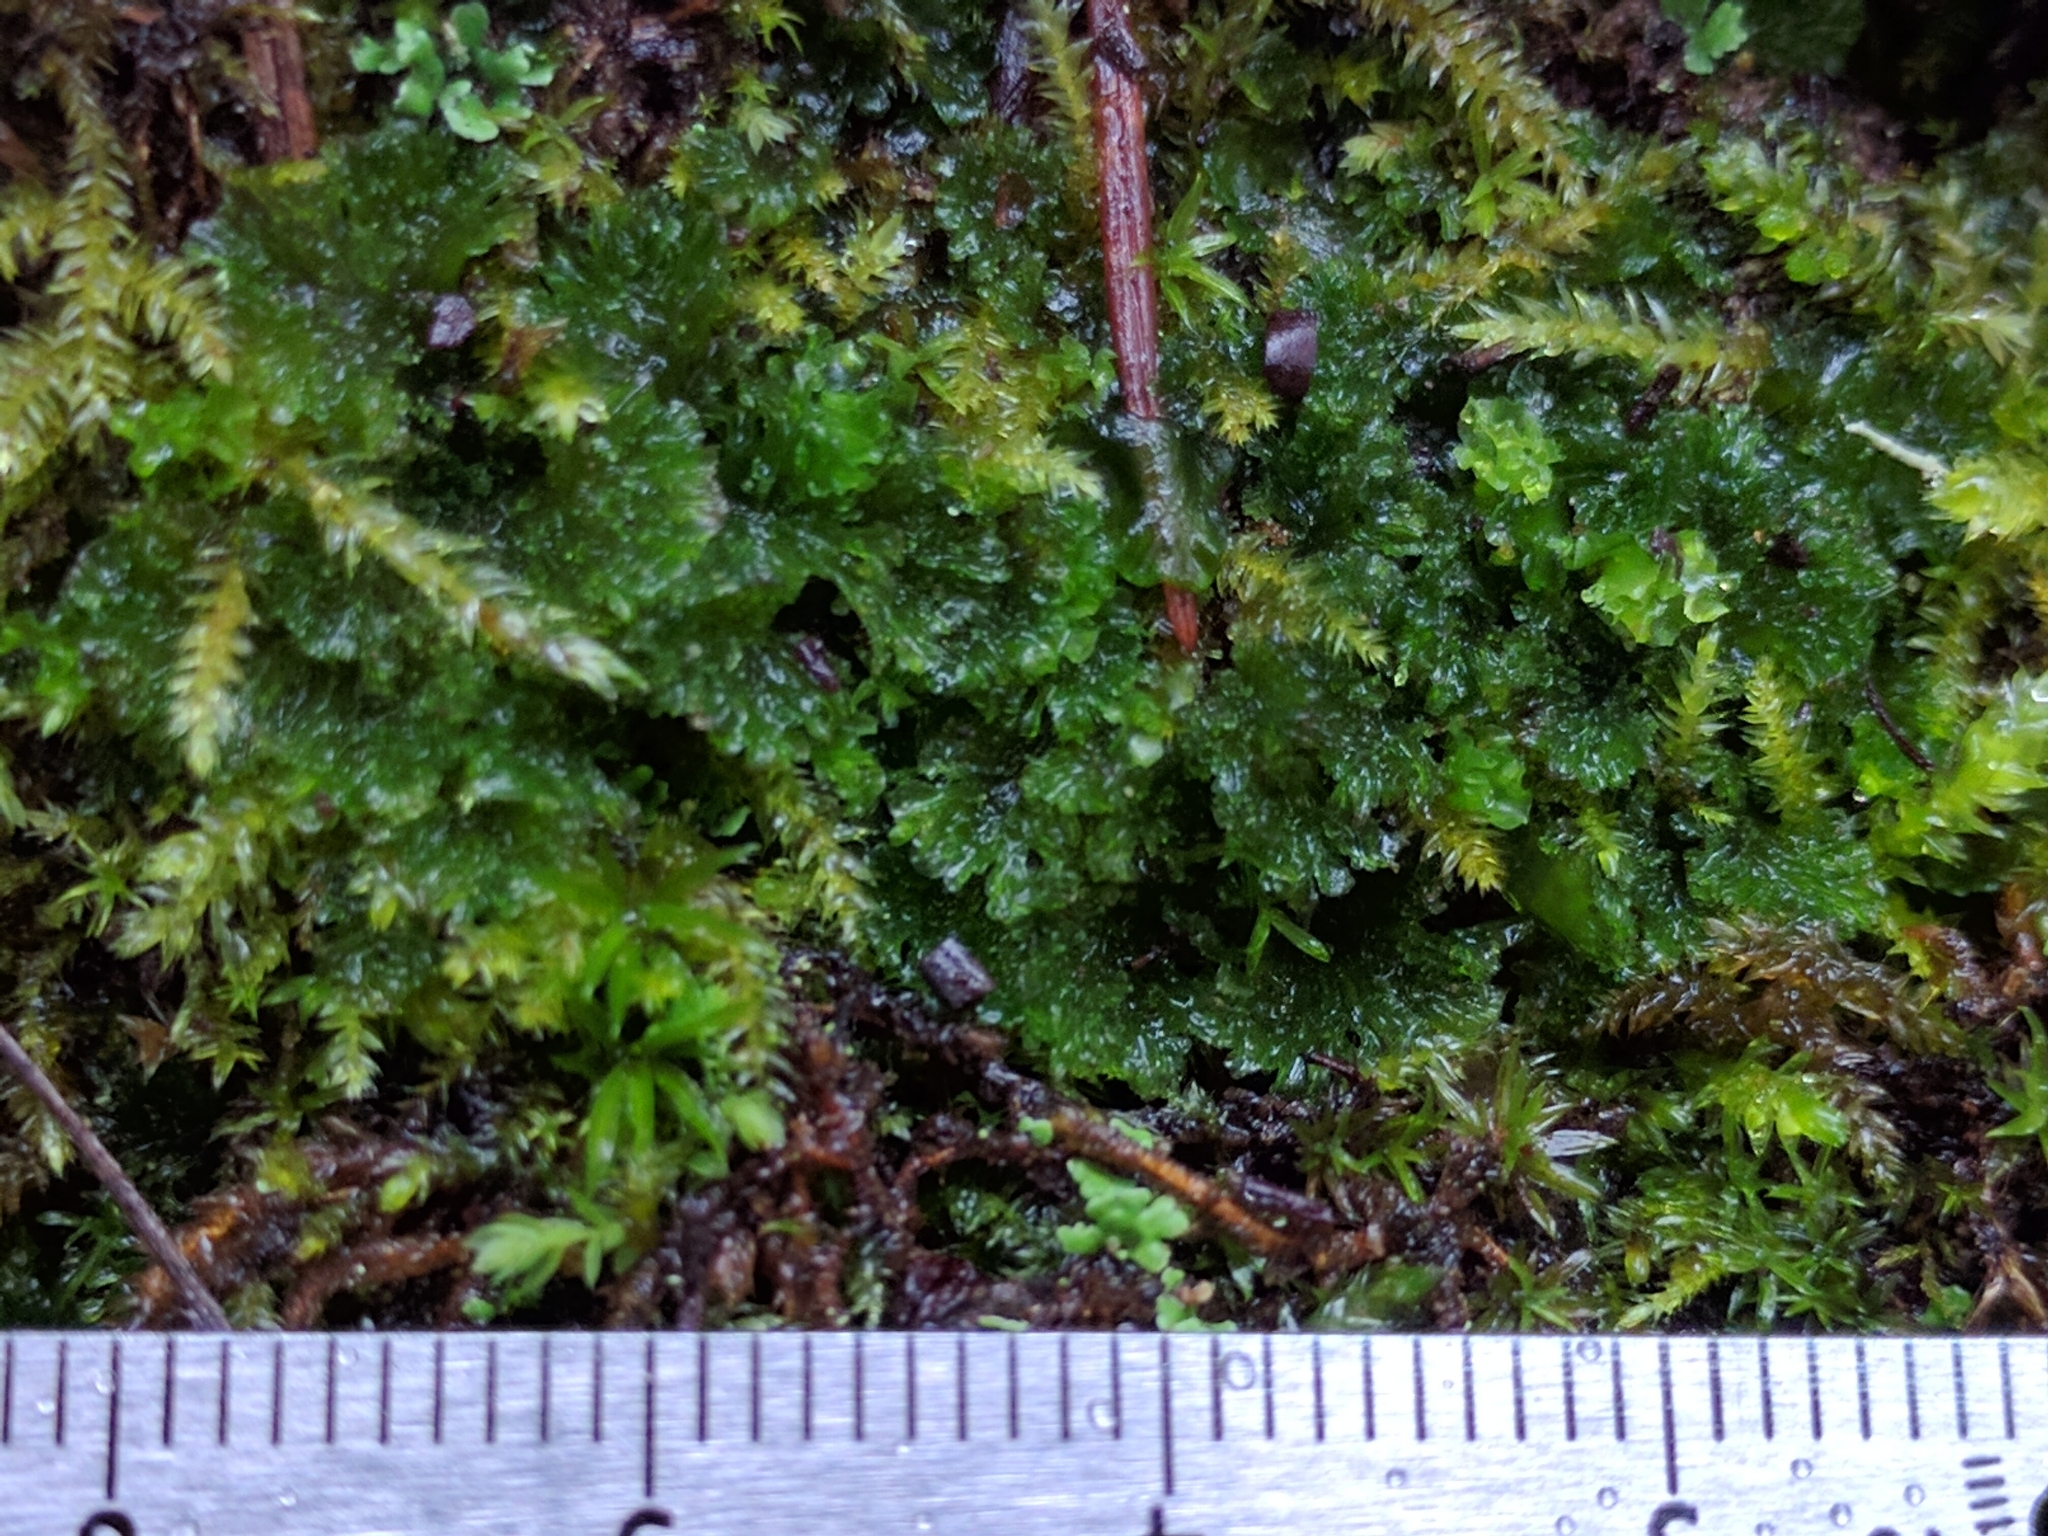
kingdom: Plantae
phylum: Anthocerotophyta
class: Anthocerotopsida
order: Anthocerotales
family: Anthocerotaceae
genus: Anthoceros
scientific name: Anthoceros fusiformis
